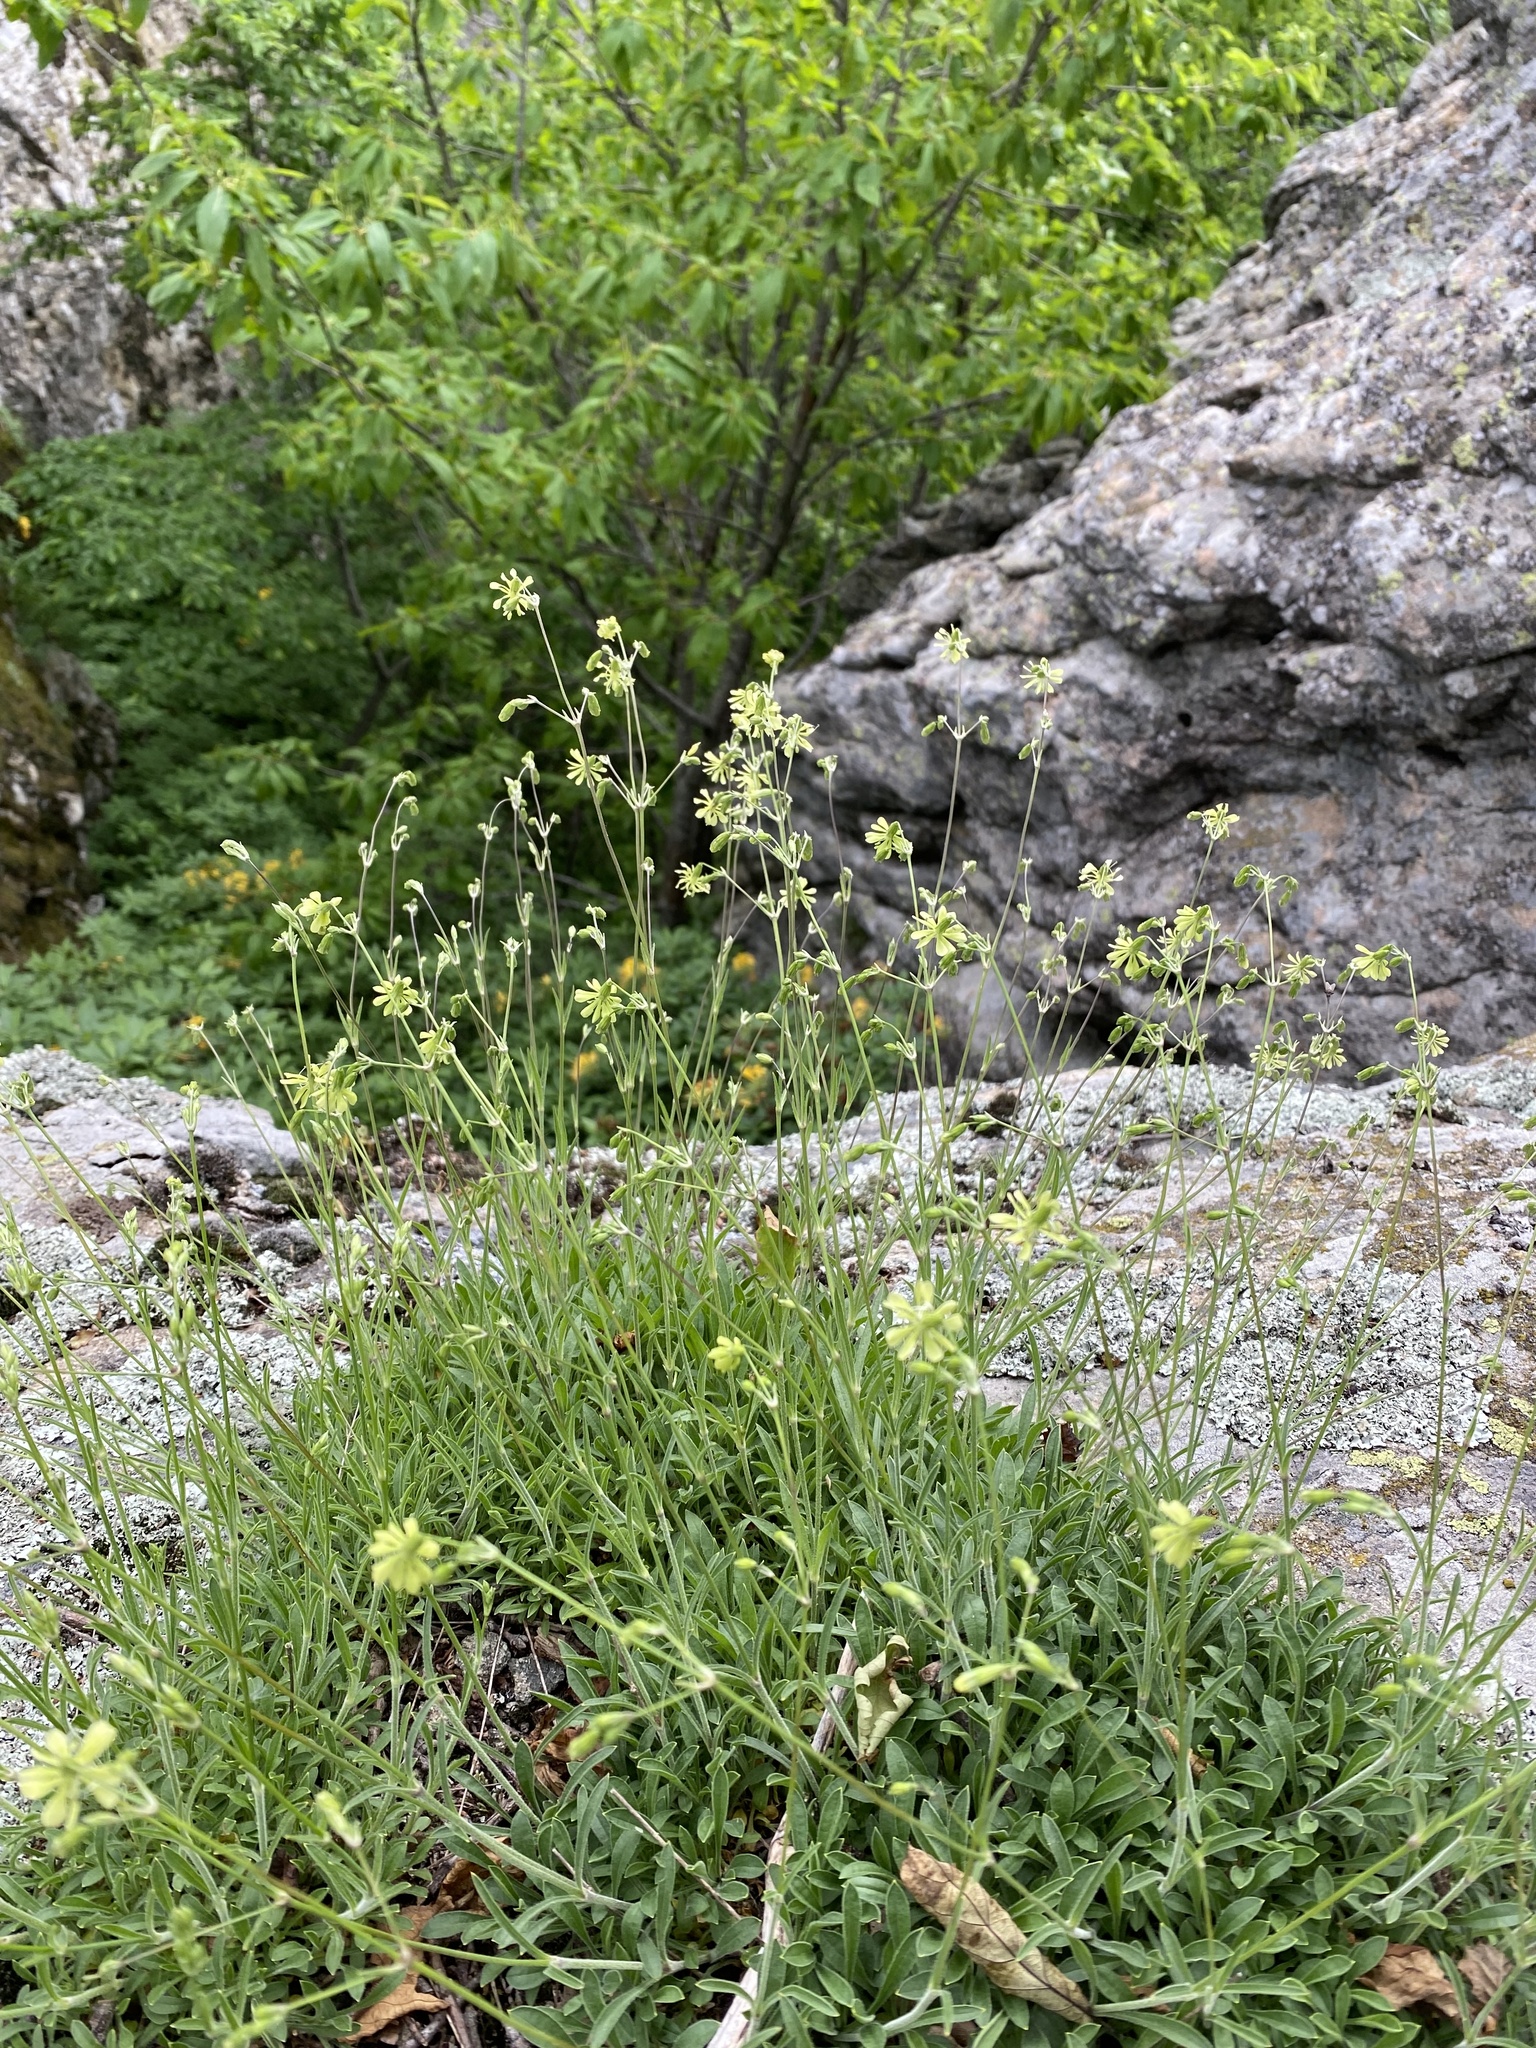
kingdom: Plantae
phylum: Tracheophyta
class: Magnoliopsida
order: Caryophyllales
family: Caryophyllaceae
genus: Silene
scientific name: Silene saxatilis
